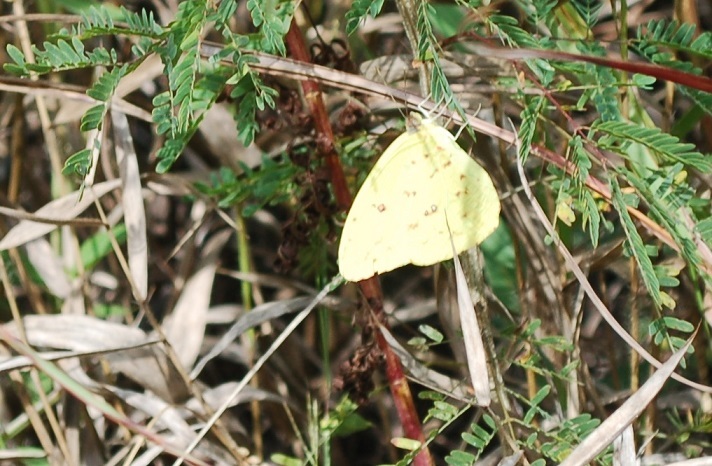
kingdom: Animalia
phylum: Arthropoda
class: Insecta
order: Lepidoptera
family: Pieridae
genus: Phoebis
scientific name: Phoebis marcellina
